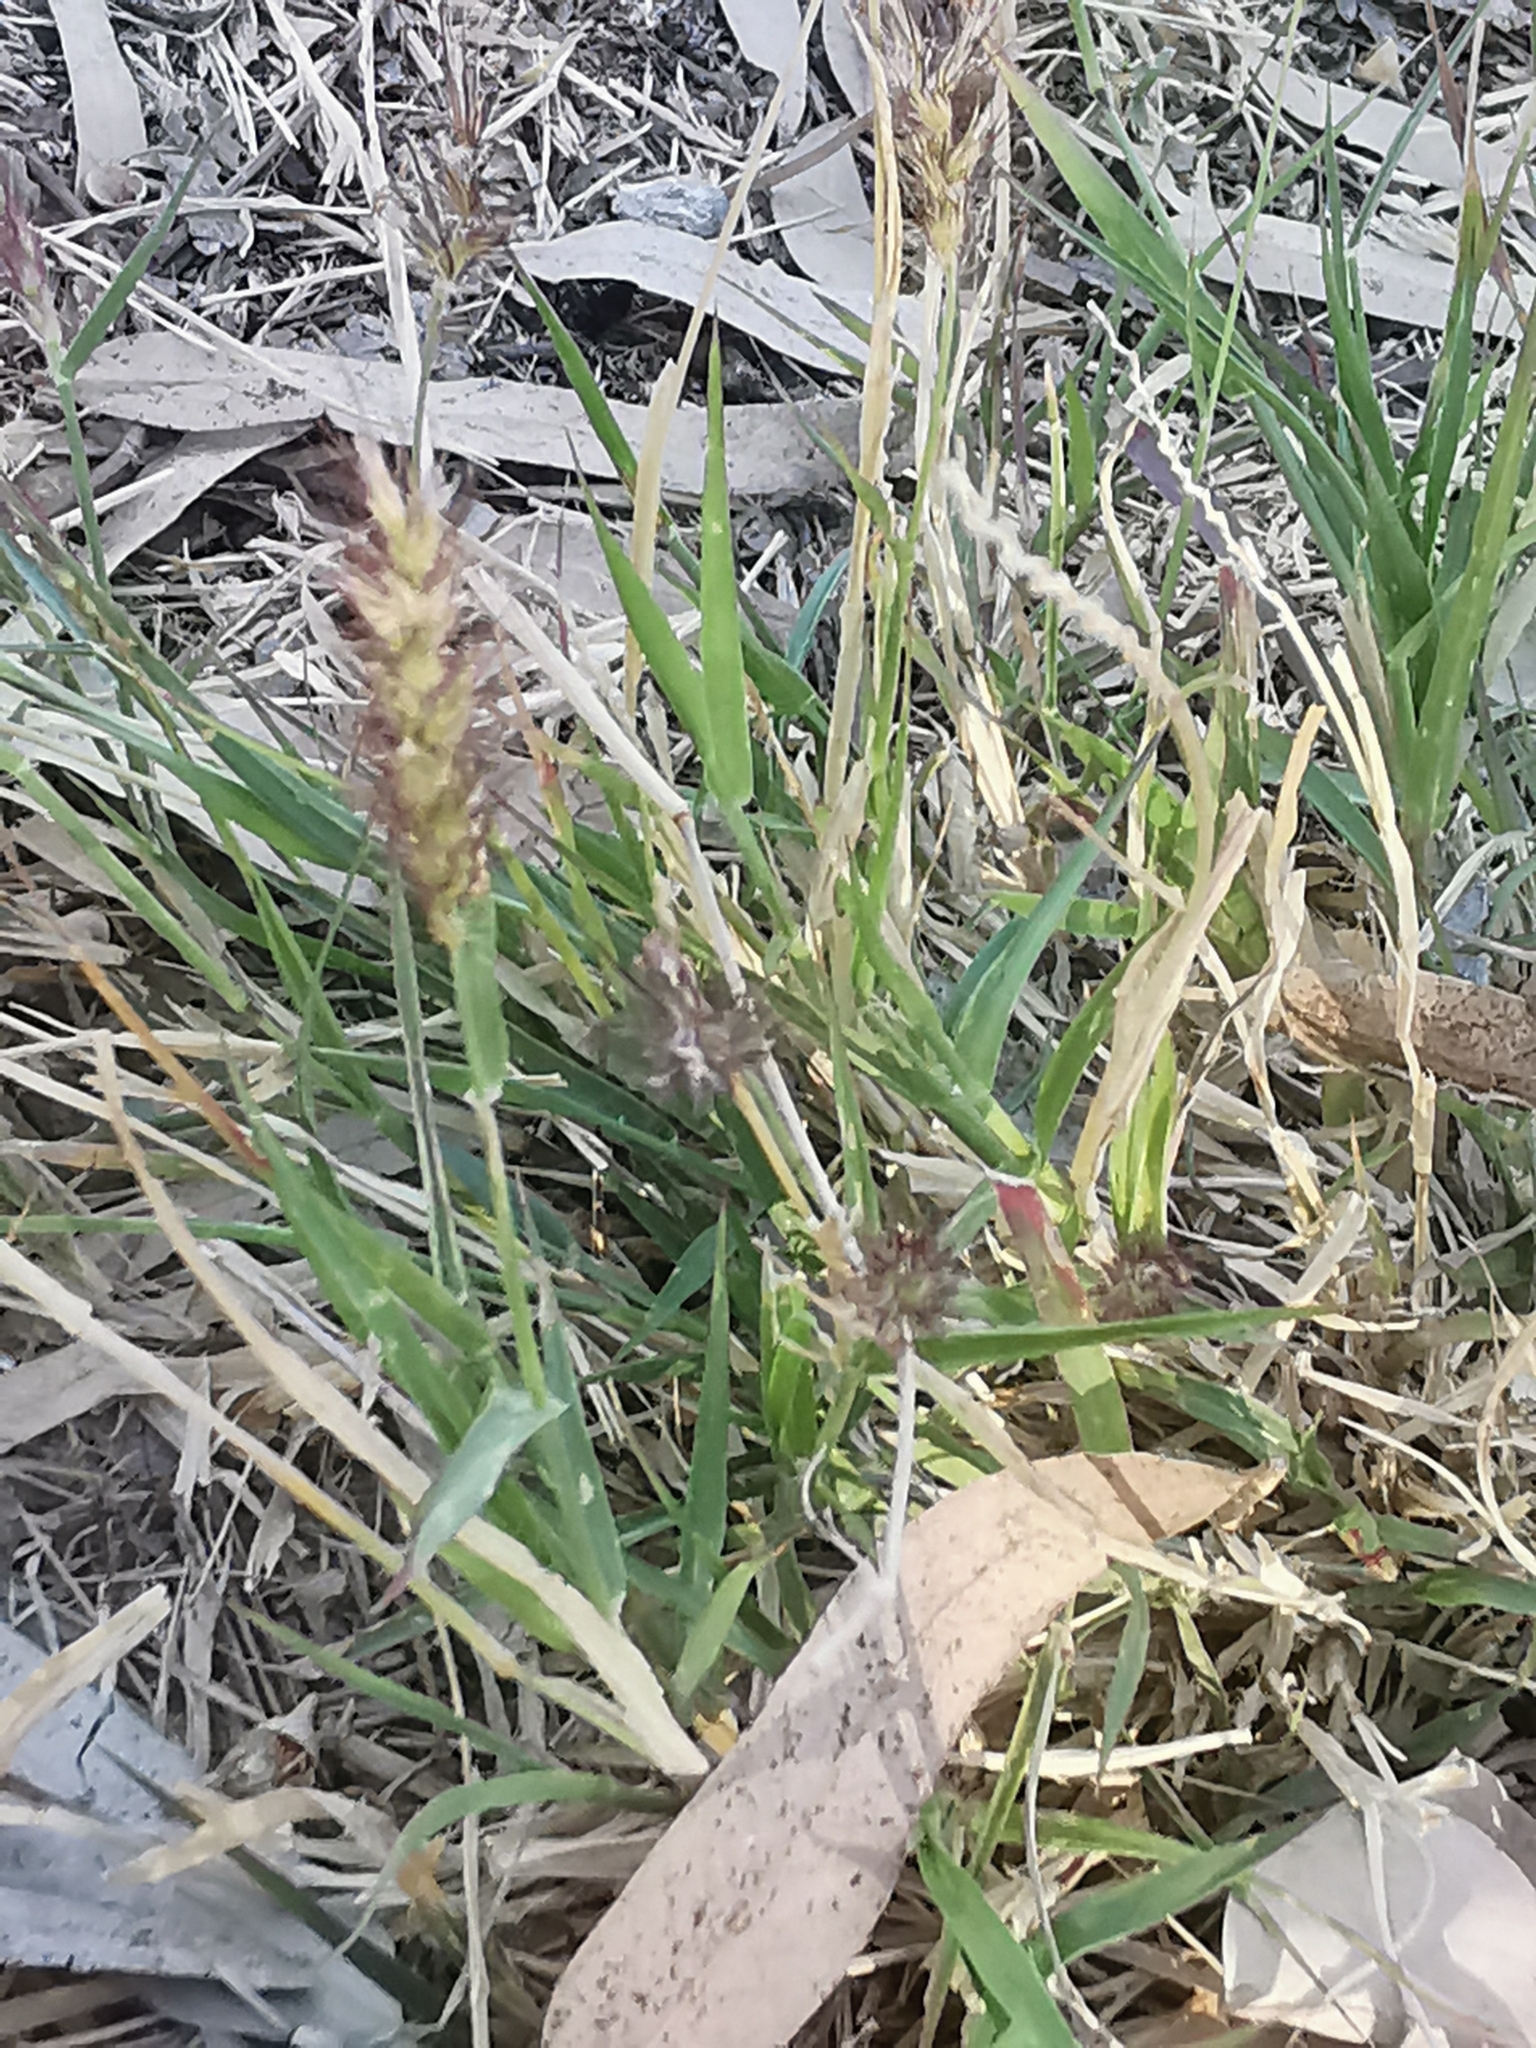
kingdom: Plantae
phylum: Tracheophyta
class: Liliopsida
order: Poales
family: Poaceae
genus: Cenchrus
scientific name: Cenchrus ciliaris
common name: Buffelgrass
